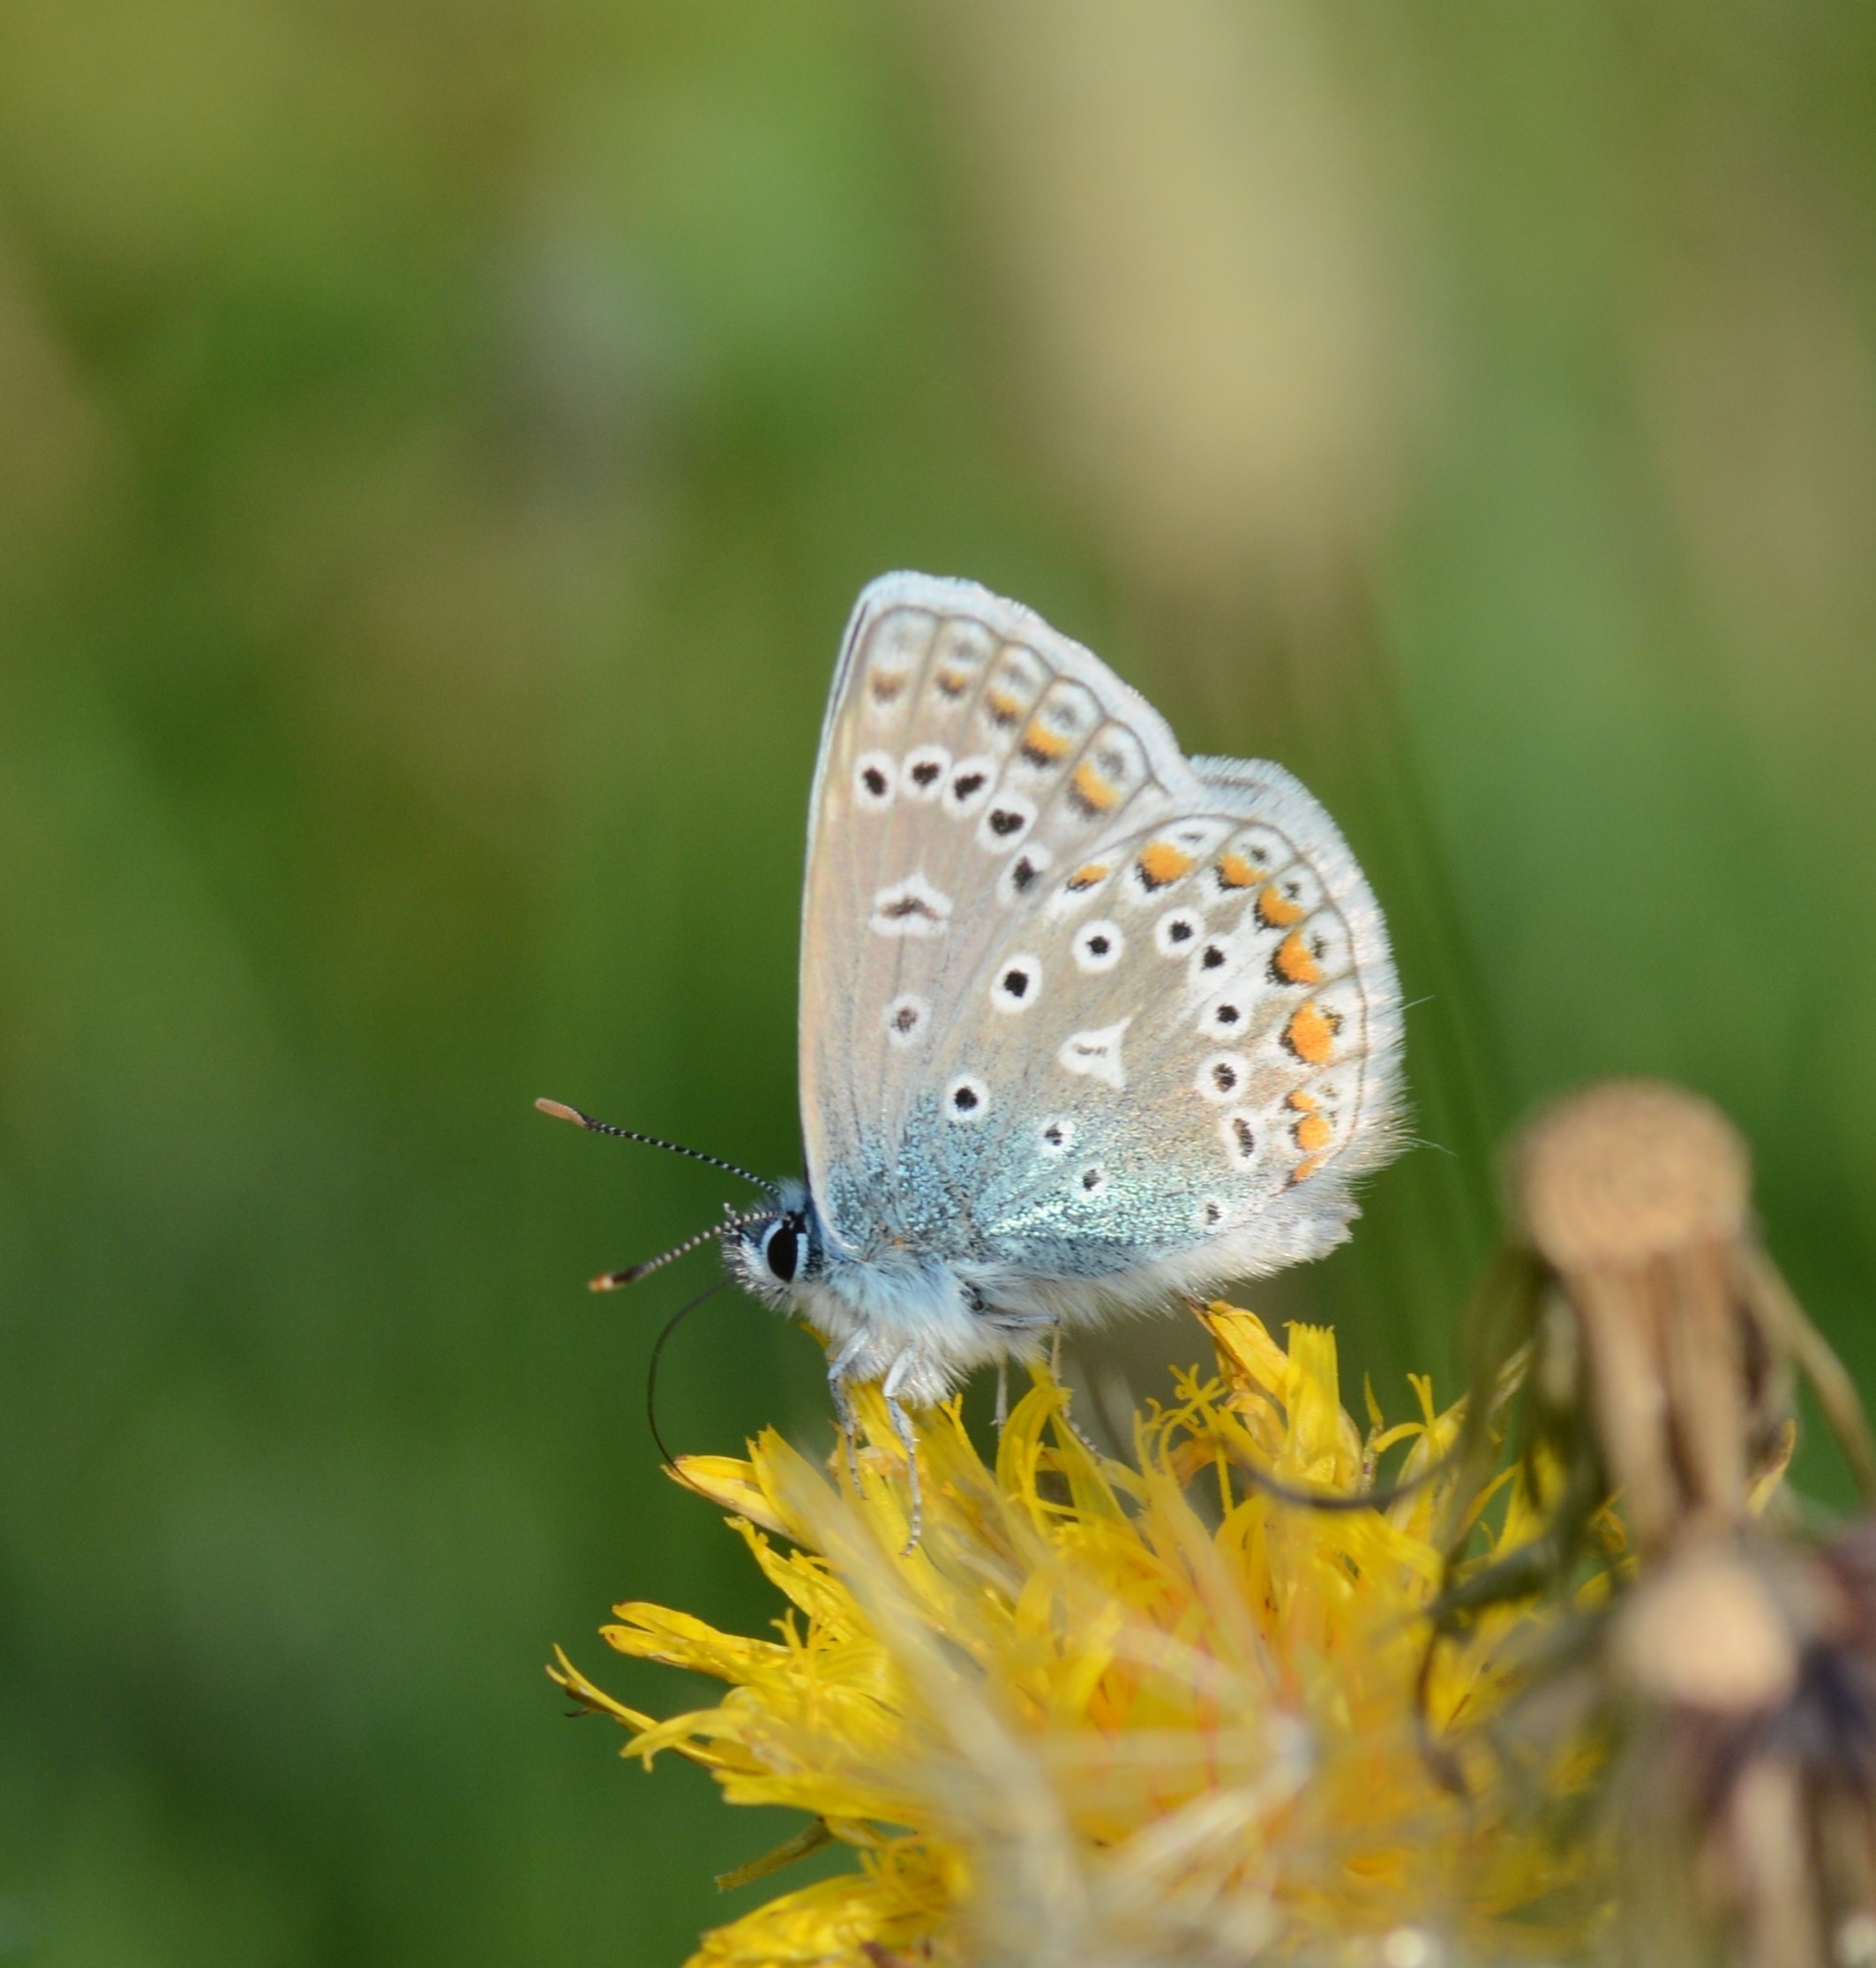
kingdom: Animalia
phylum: Arthropoda
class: Insecta
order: Lepidoptera
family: Lycaenidae
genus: Polyommatus
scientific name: Polyommatus icarus
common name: Common blue
